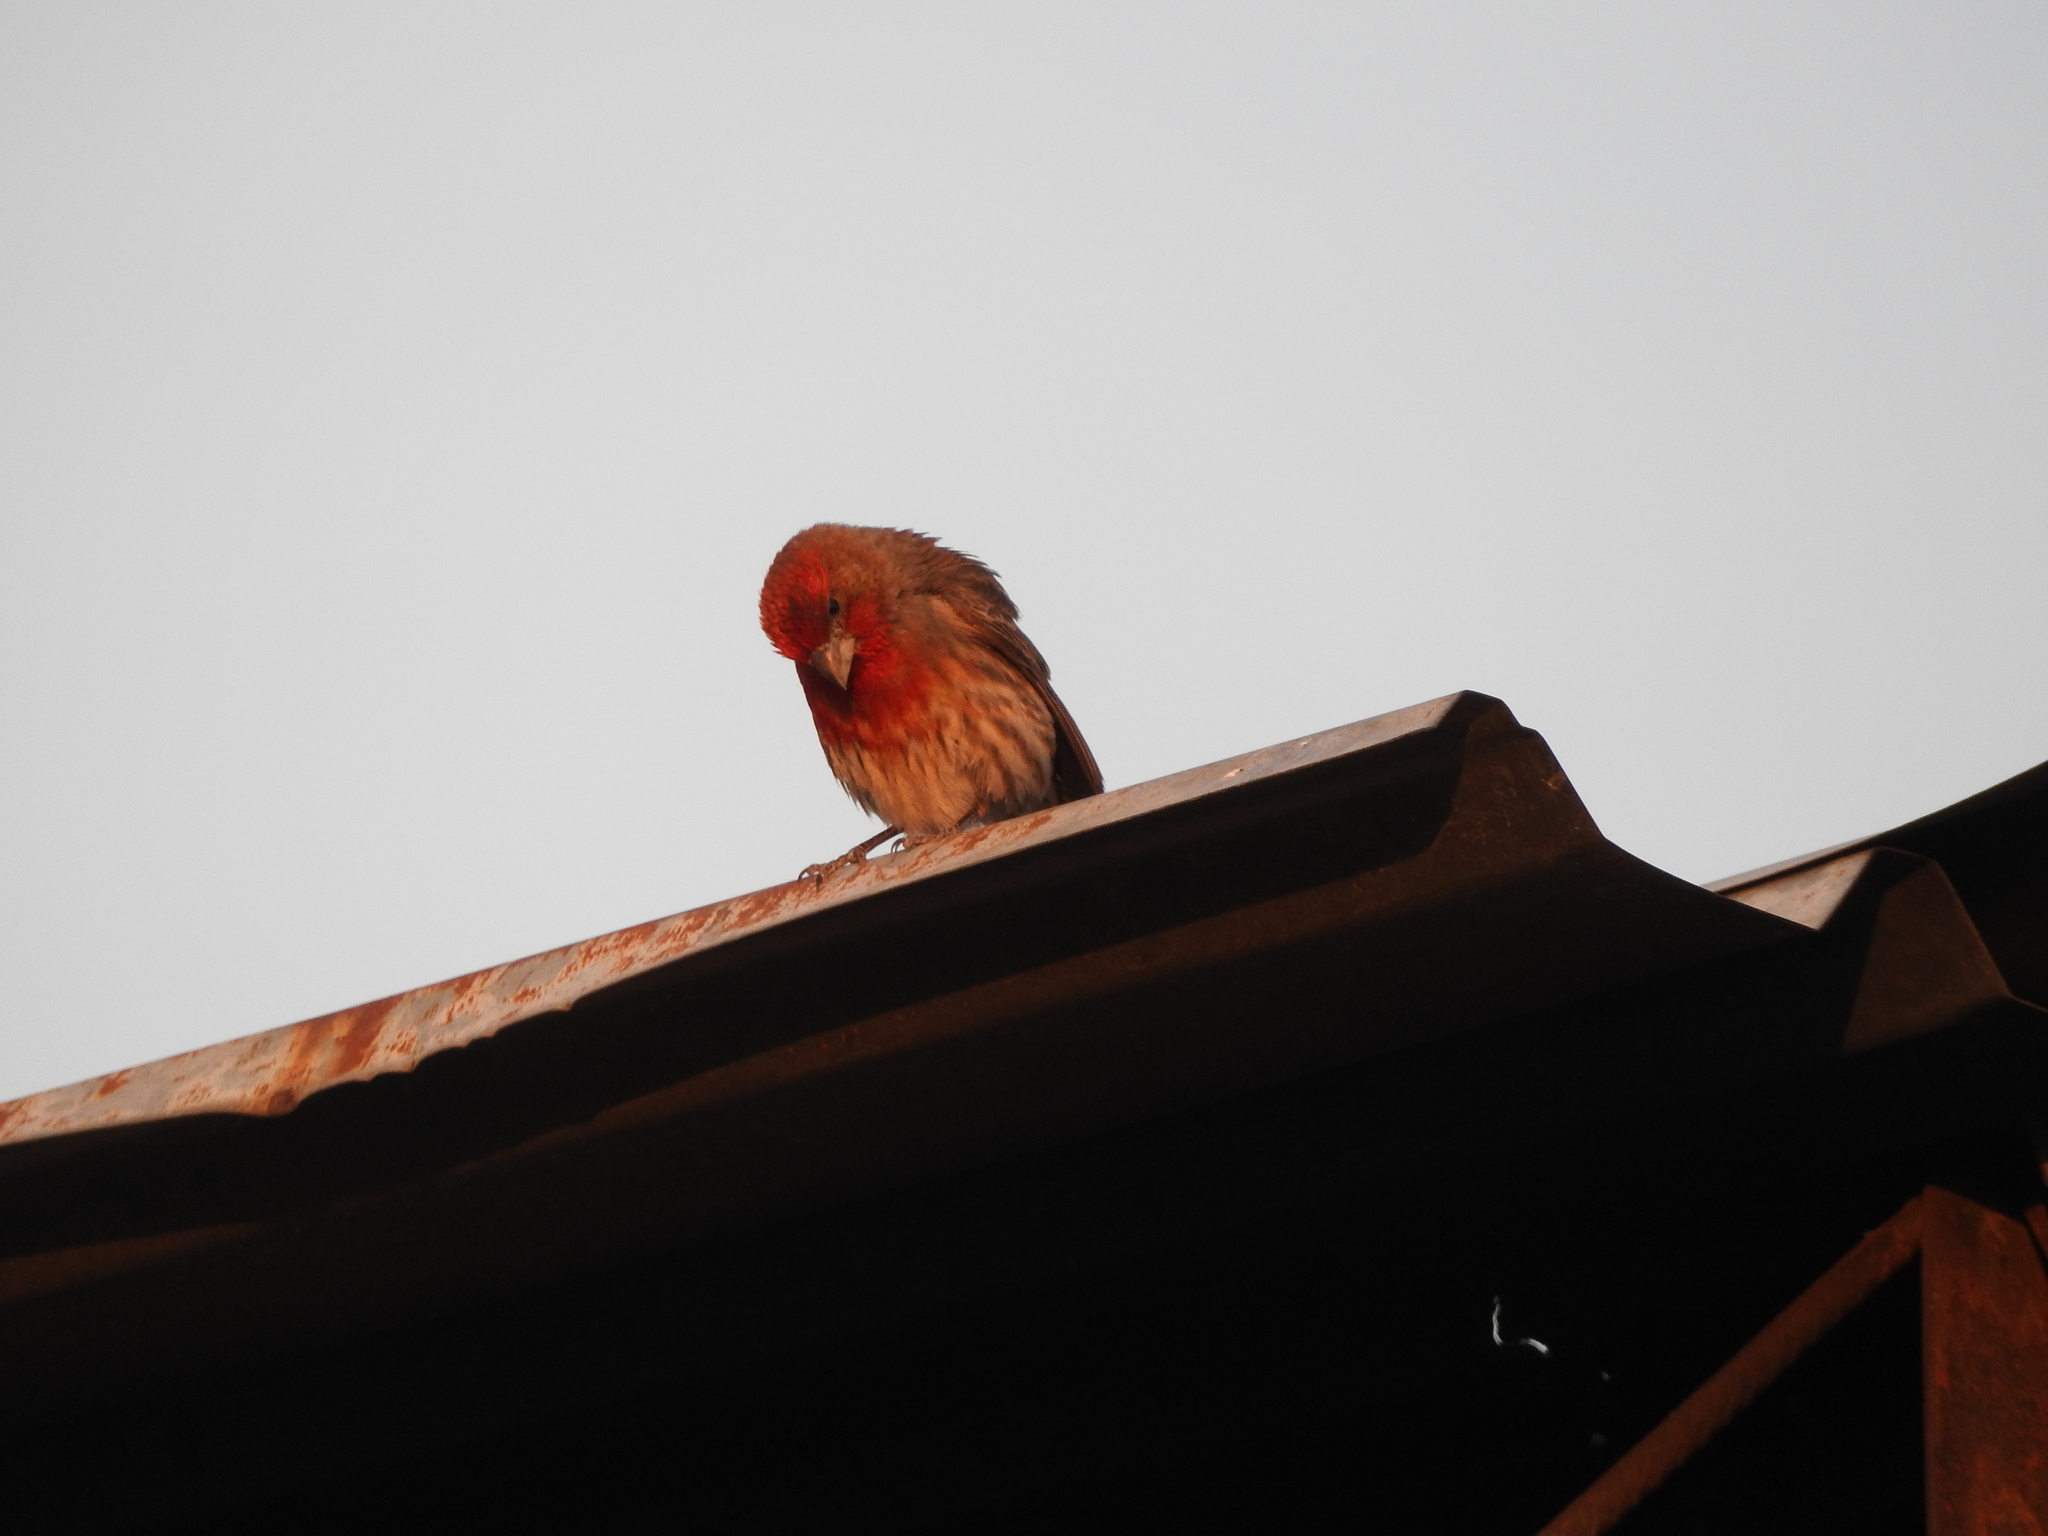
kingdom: Animalia
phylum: Chordata
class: Aves
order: Passeriformes
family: Fringillidae
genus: Haemorhous
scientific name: Haemorhous mexicanus
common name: House finch
